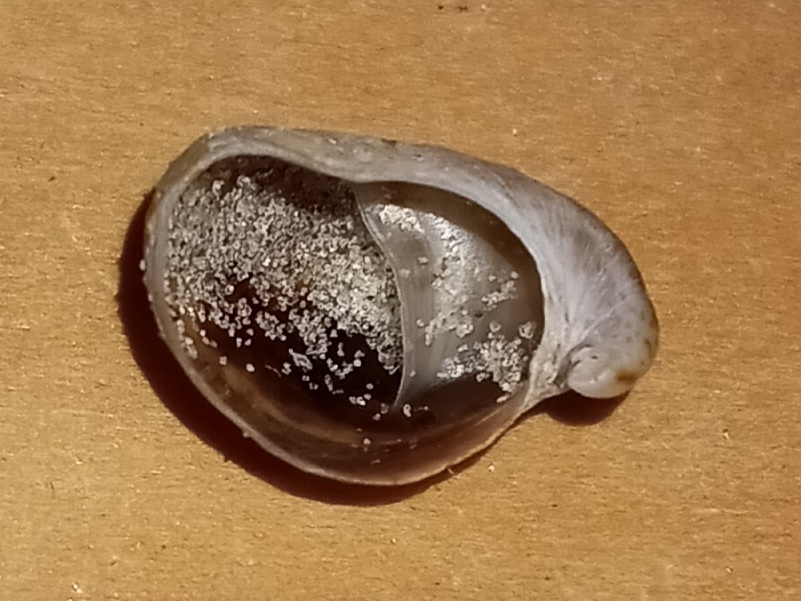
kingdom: Animalia
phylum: Mollusca
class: Gastropoda
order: Littorinimorpha
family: Calyptraeidae
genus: Crepidula
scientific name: Crepidula fornicata
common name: Slipper limpet
